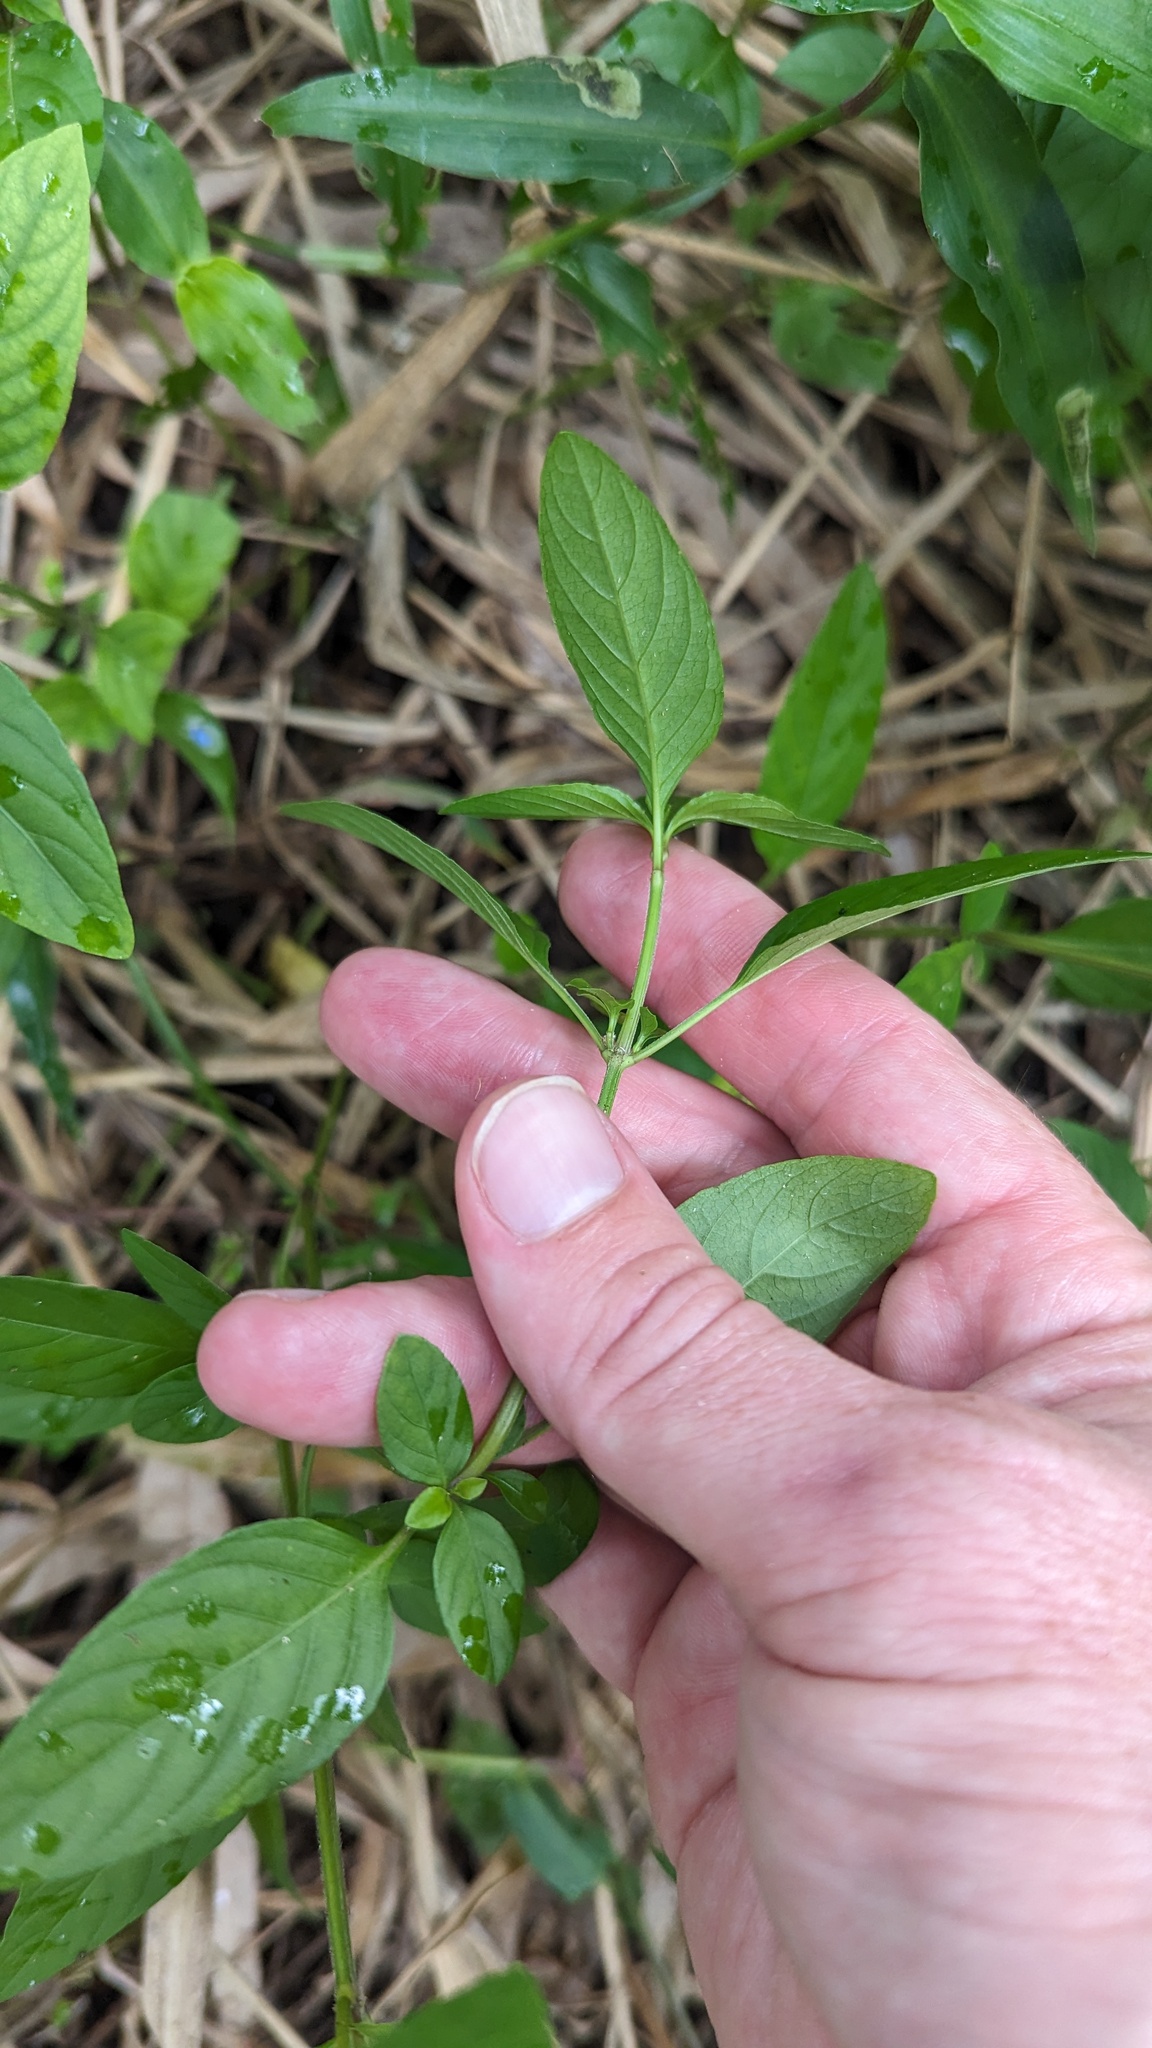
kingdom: Plantae
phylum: Tracheophyta
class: Magnoliopsida
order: Lamiales
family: Acanthaceae
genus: Hygrophila
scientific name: Hygrophila erecta
